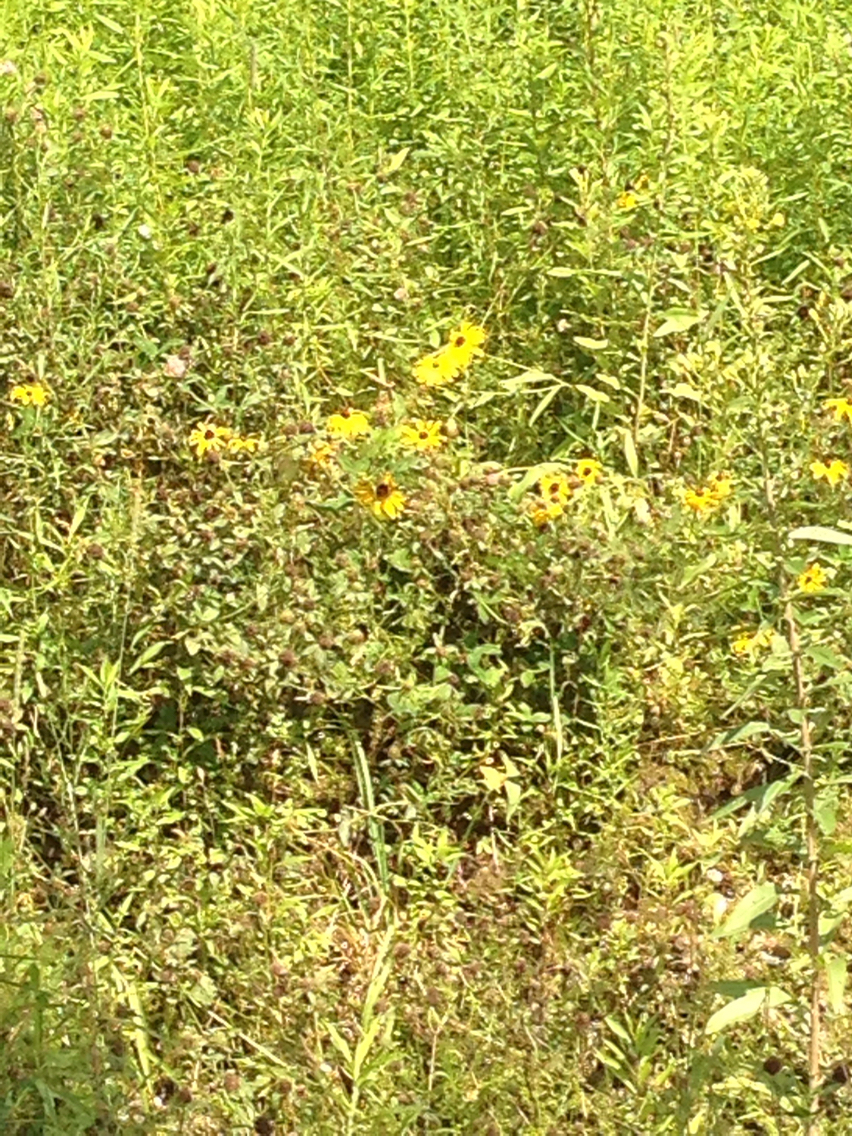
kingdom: Plantae
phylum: Tracheophyta
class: Magnoliopsida
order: Asterales
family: Asteraceae
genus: Rudbeckia
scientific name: Rudbeckia hirta
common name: Black-eyed-susan
